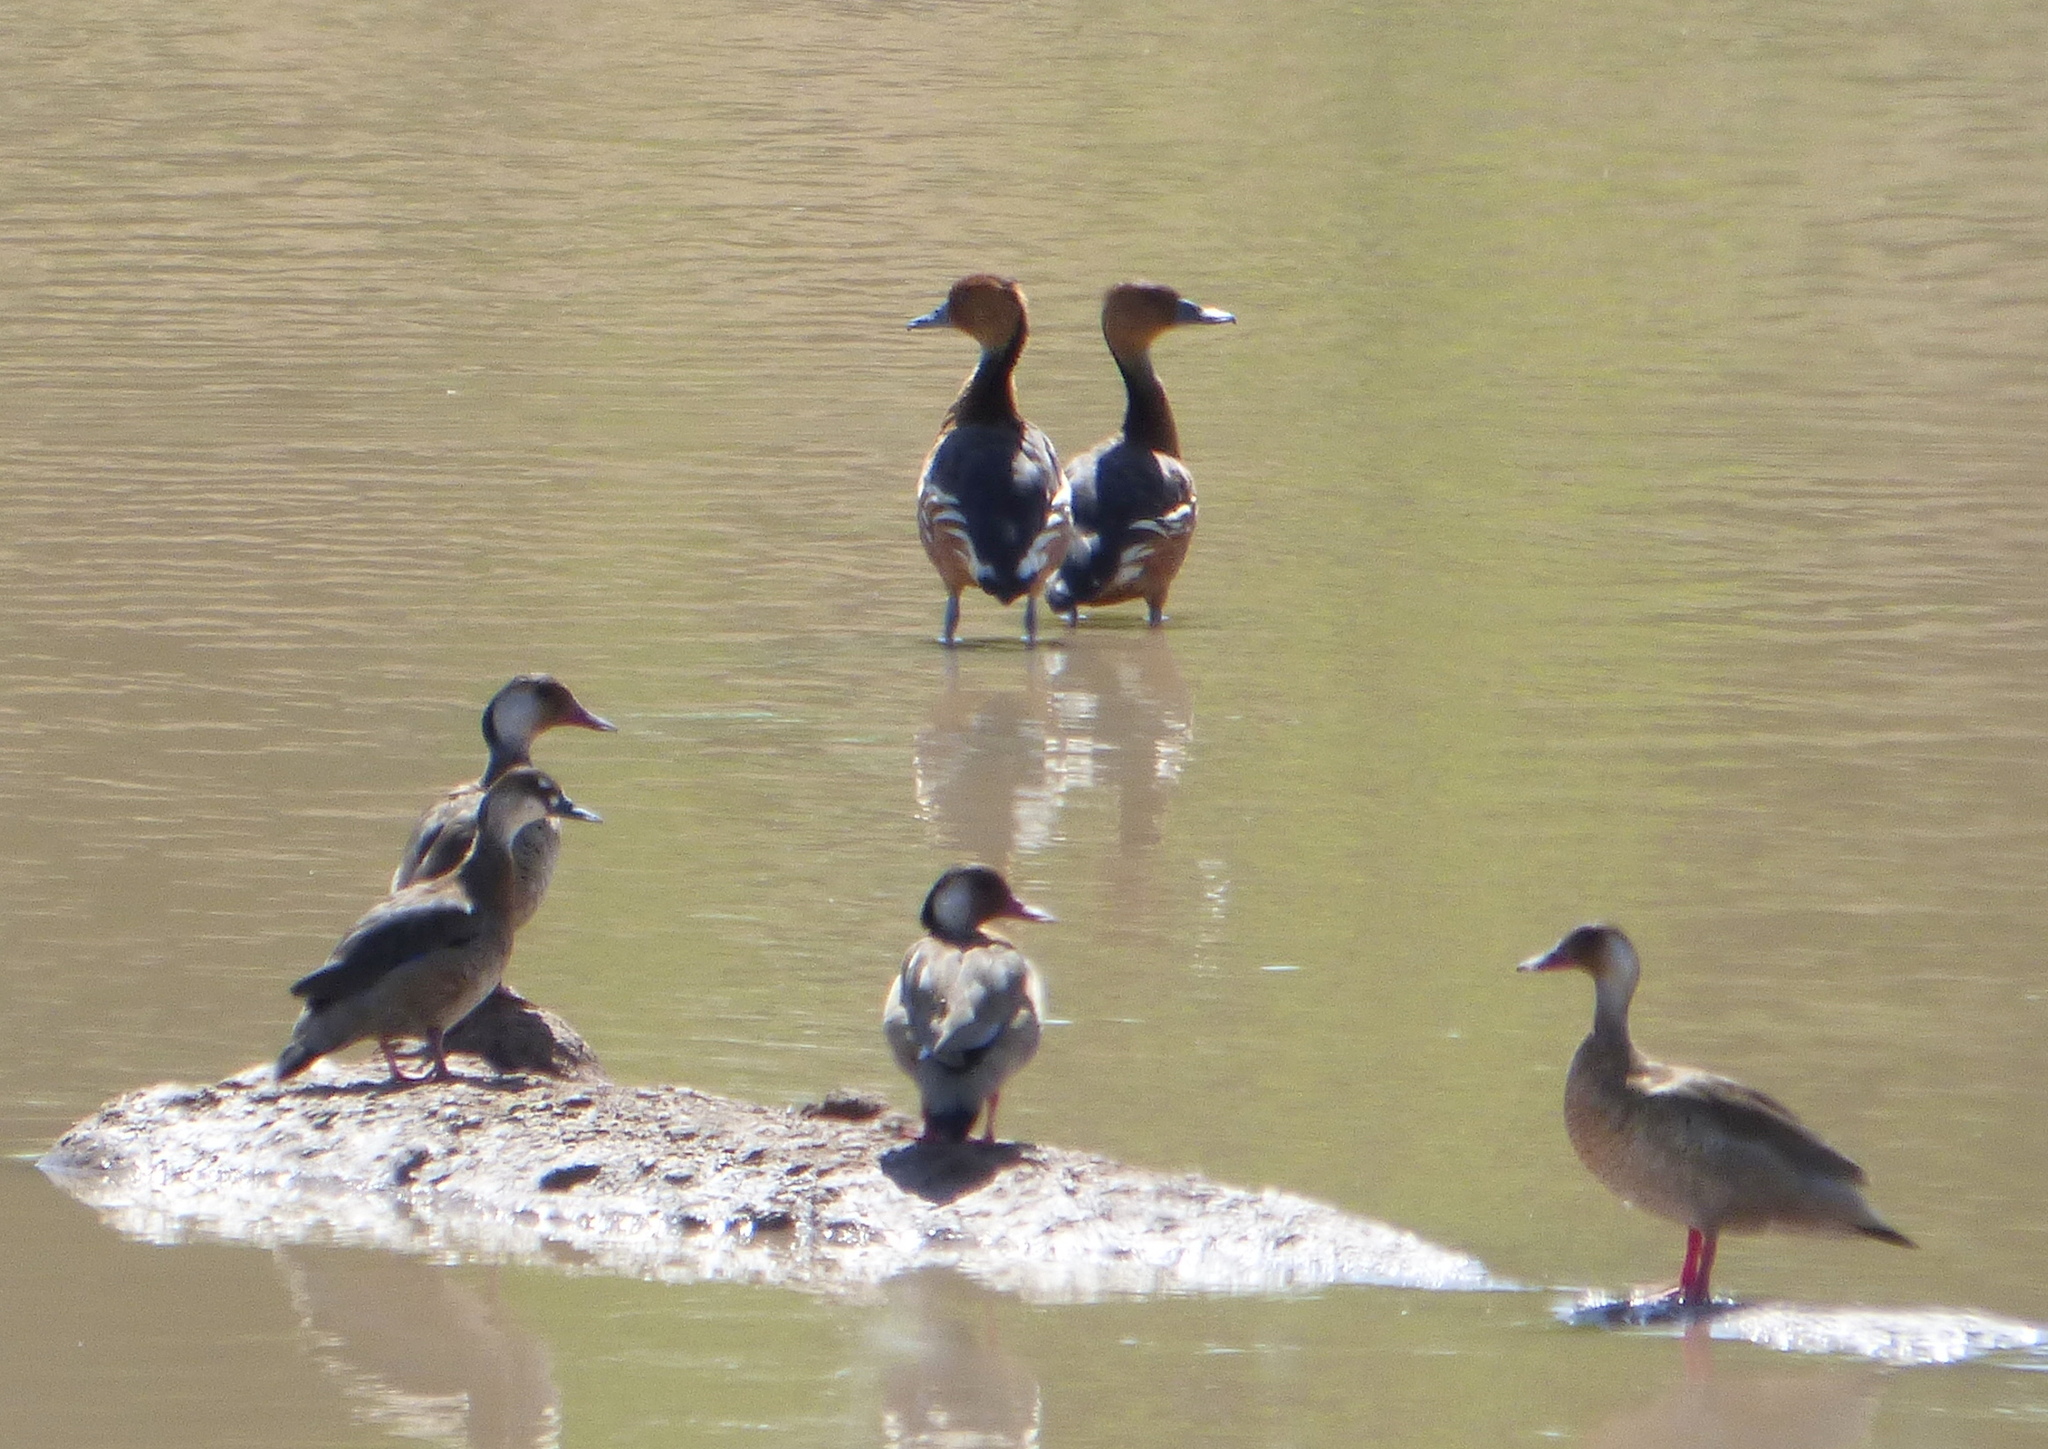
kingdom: Animalia
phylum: Chordata
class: Aves
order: Anseriformes
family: Anatidae
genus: Amazonetta
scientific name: Amazonetta brasiliensis
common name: Brazilian teal
